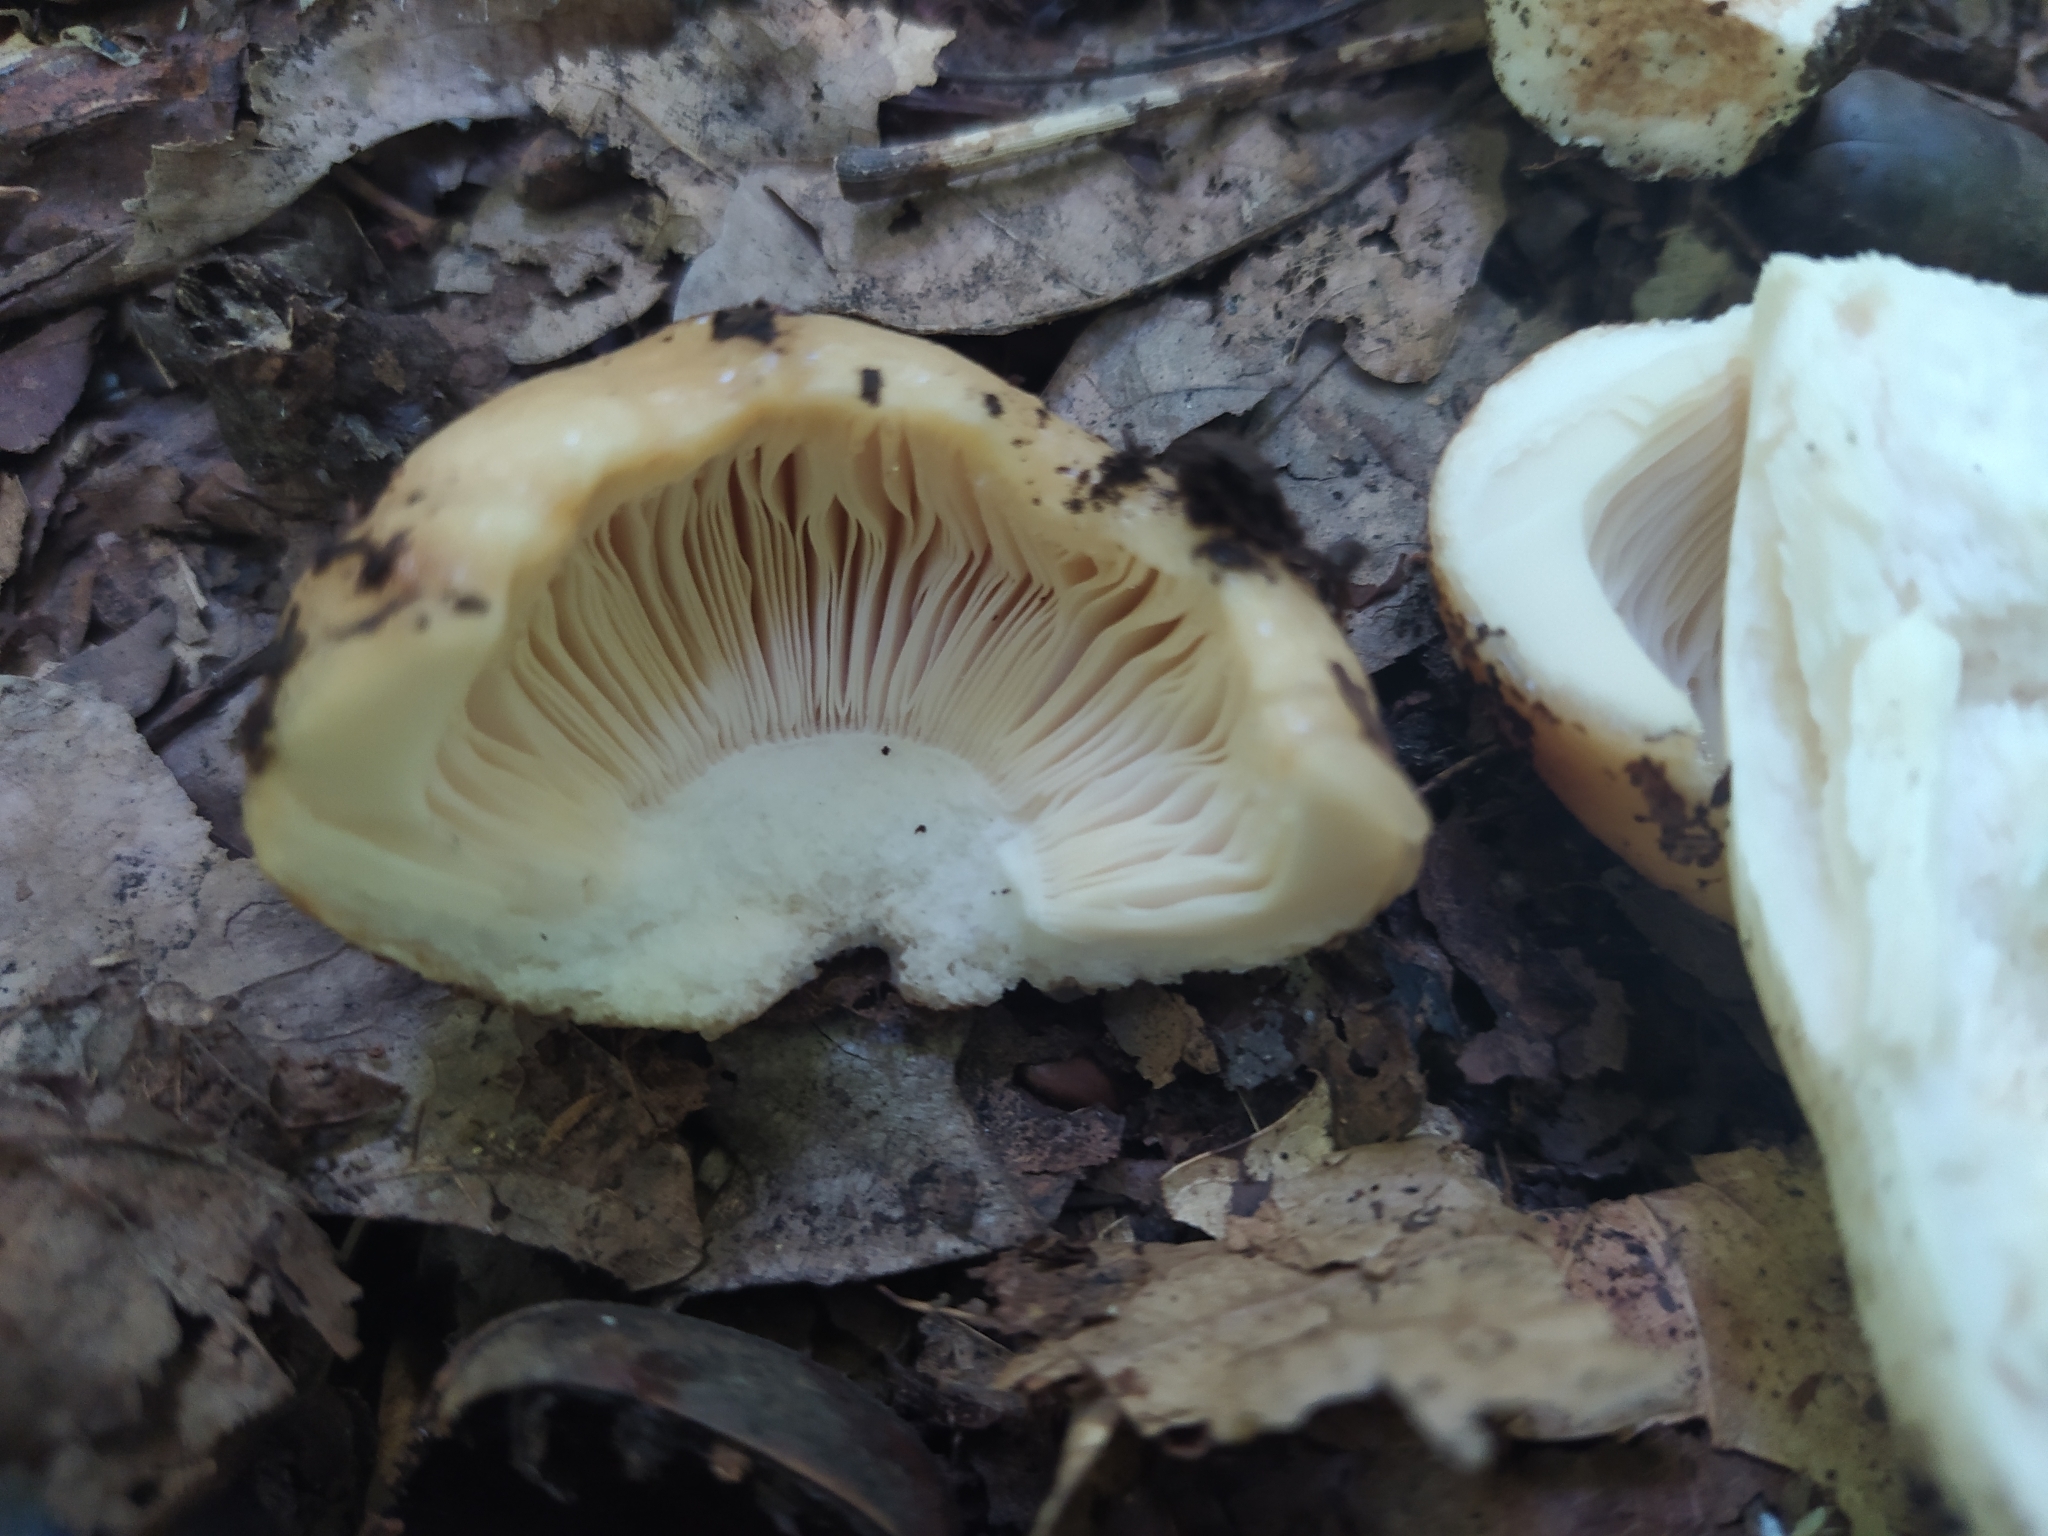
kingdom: Fungi
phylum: Basidiomycota
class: Agaricomycetes
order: Russulales
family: Russulaceae
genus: Russula
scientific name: Russula foetens
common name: Foetid russula
